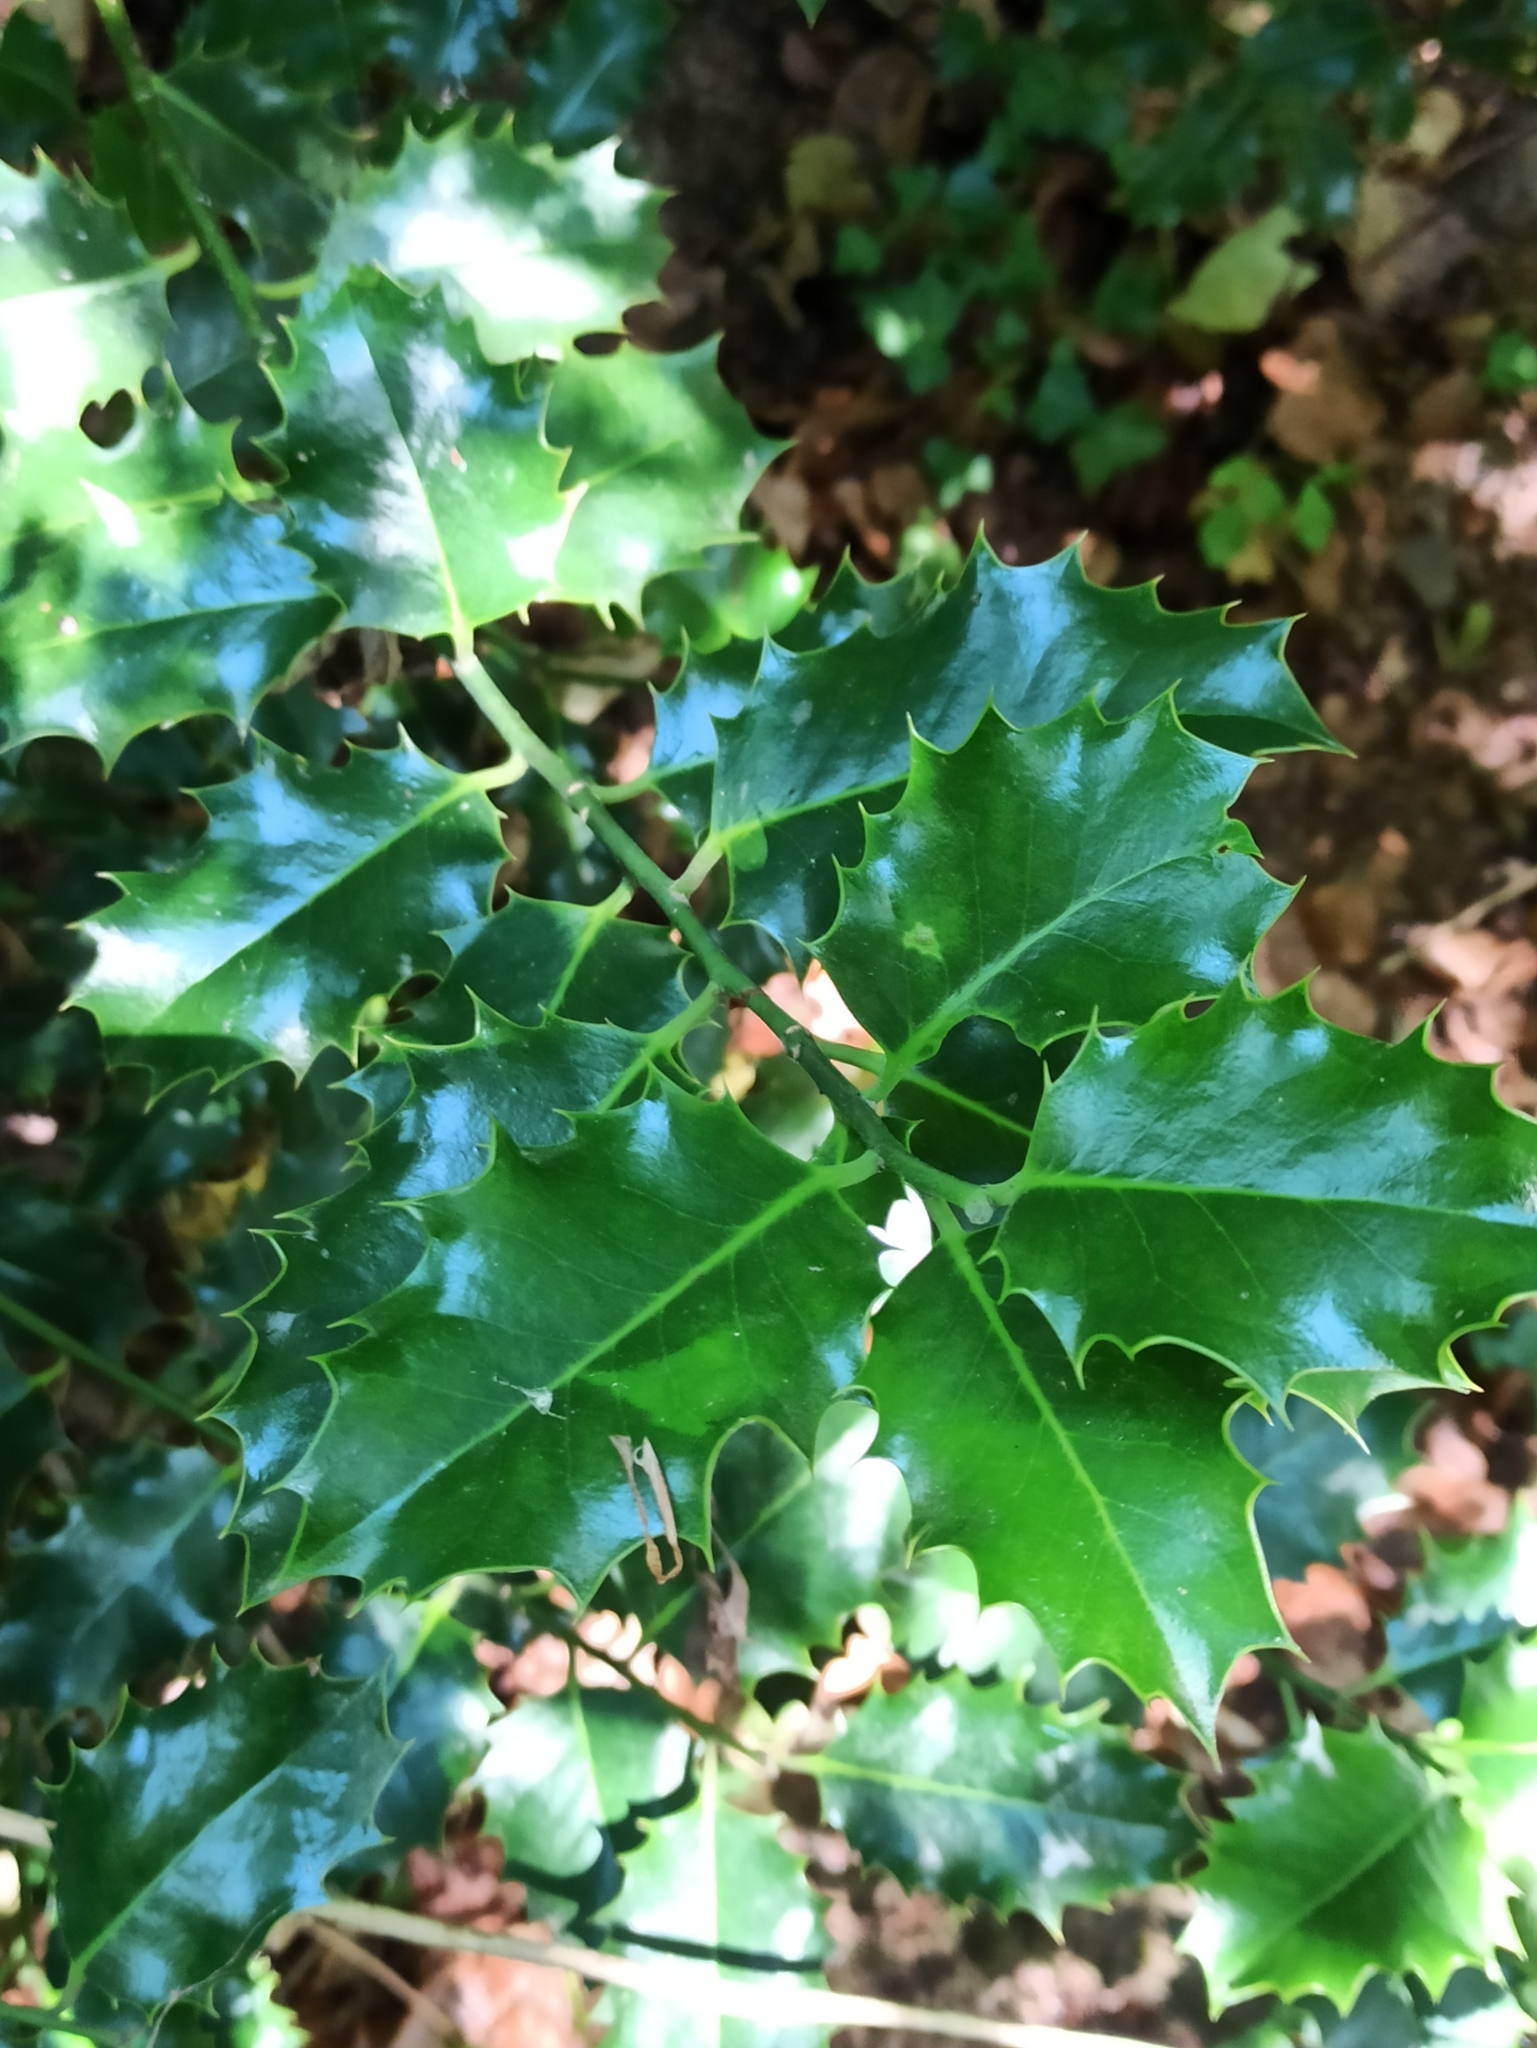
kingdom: Plantae
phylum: Tracheophyta
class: Magnoliopsida
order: Aquifoliales
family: Aquifoliaceae
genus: Ilex
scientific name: Ilex aquifolium
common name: English holly
